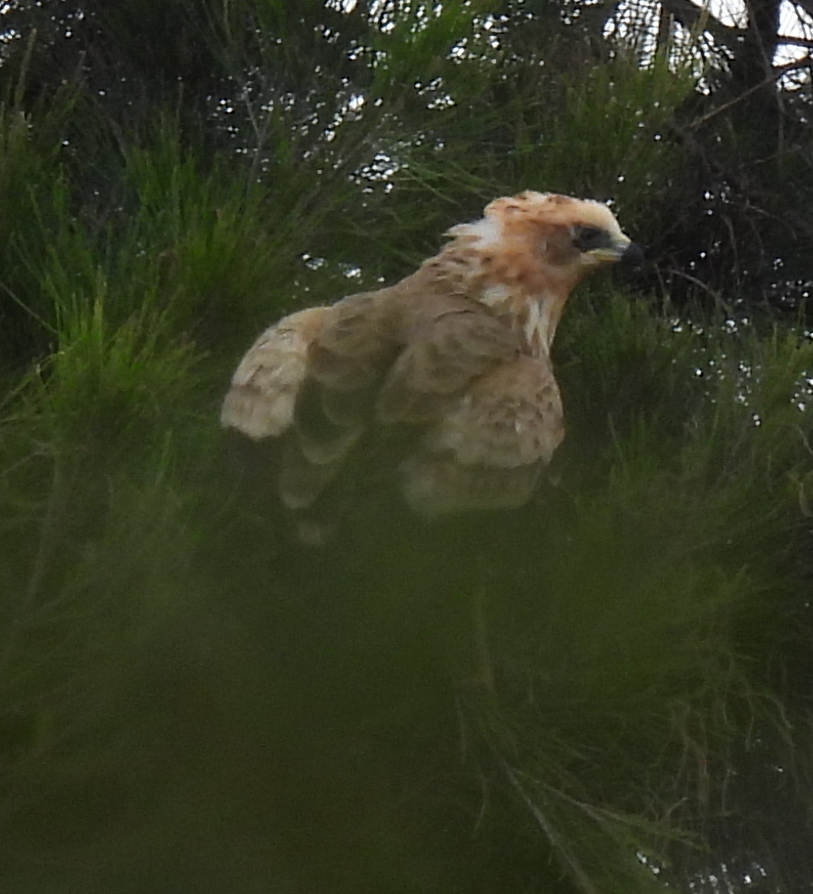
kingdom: Animalia
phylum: Chordata
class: Aves
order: Accipitriformes
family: Accipitridae
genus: Polyboroides
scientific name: Polyboroides typus
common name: African harrier-hawk
